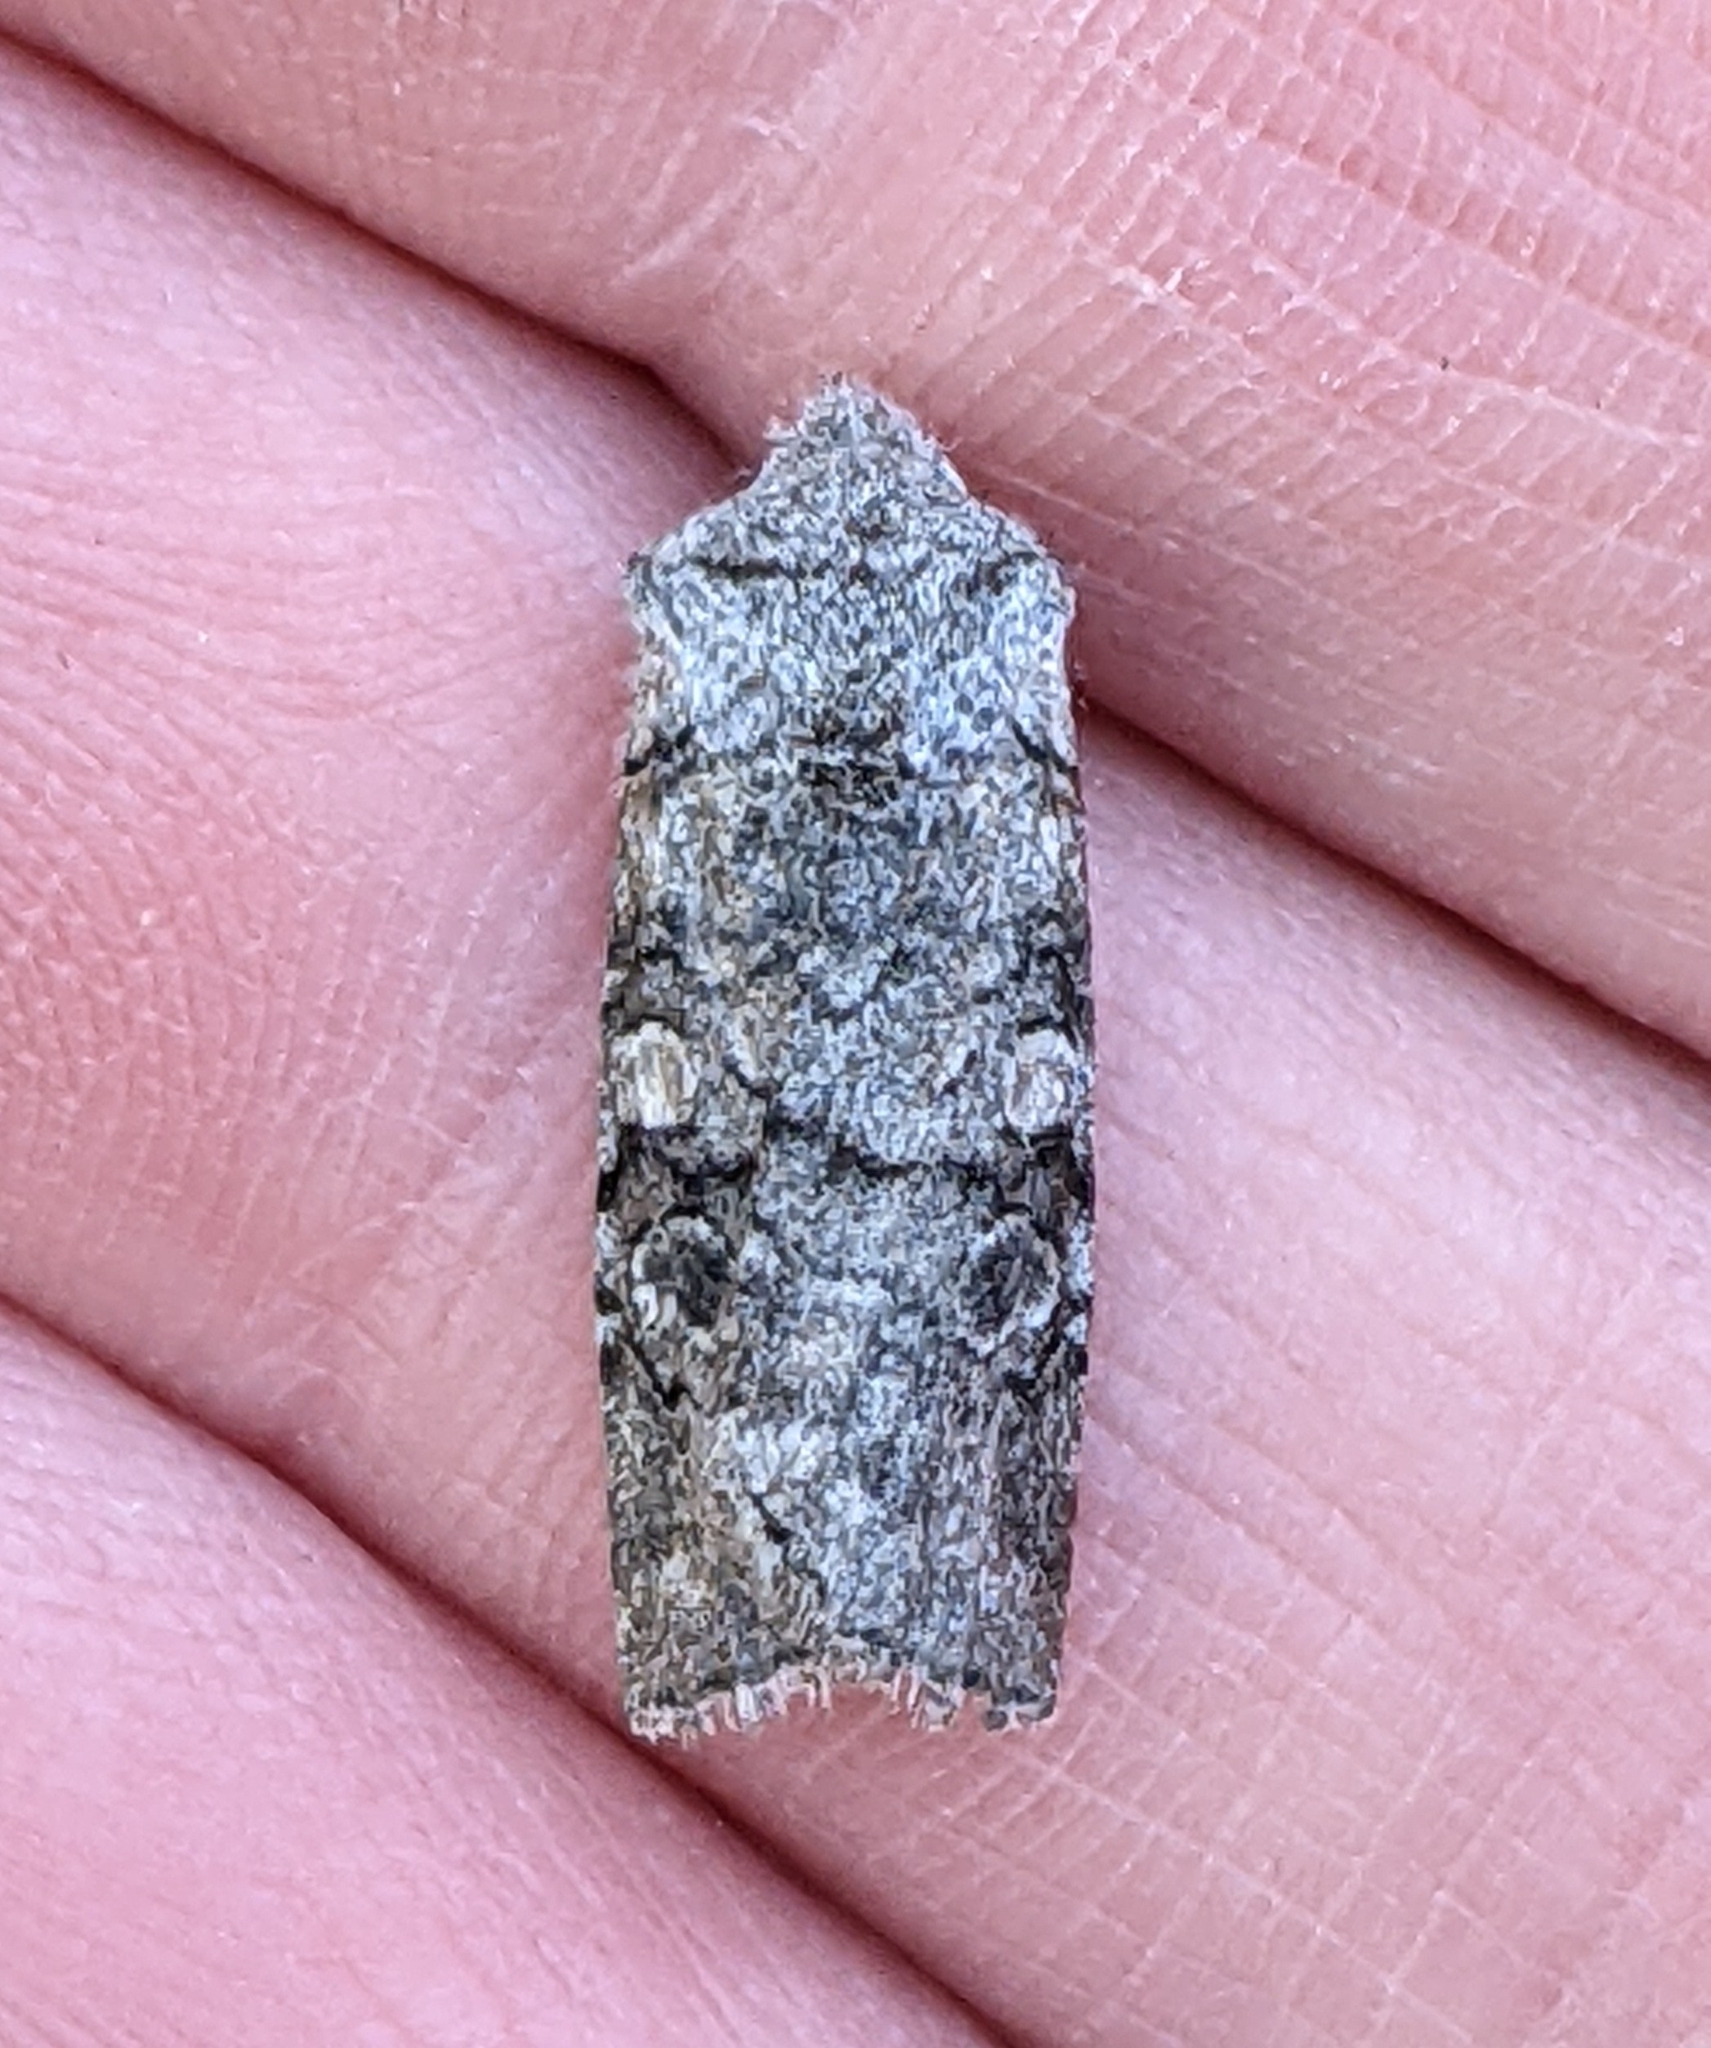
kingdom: Animalia
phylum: Arthropoda
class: Insecta
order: Lepidoptera
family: Noctuidae
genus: Litholomia
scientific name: Litholomia napaea
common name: False pinion moth
